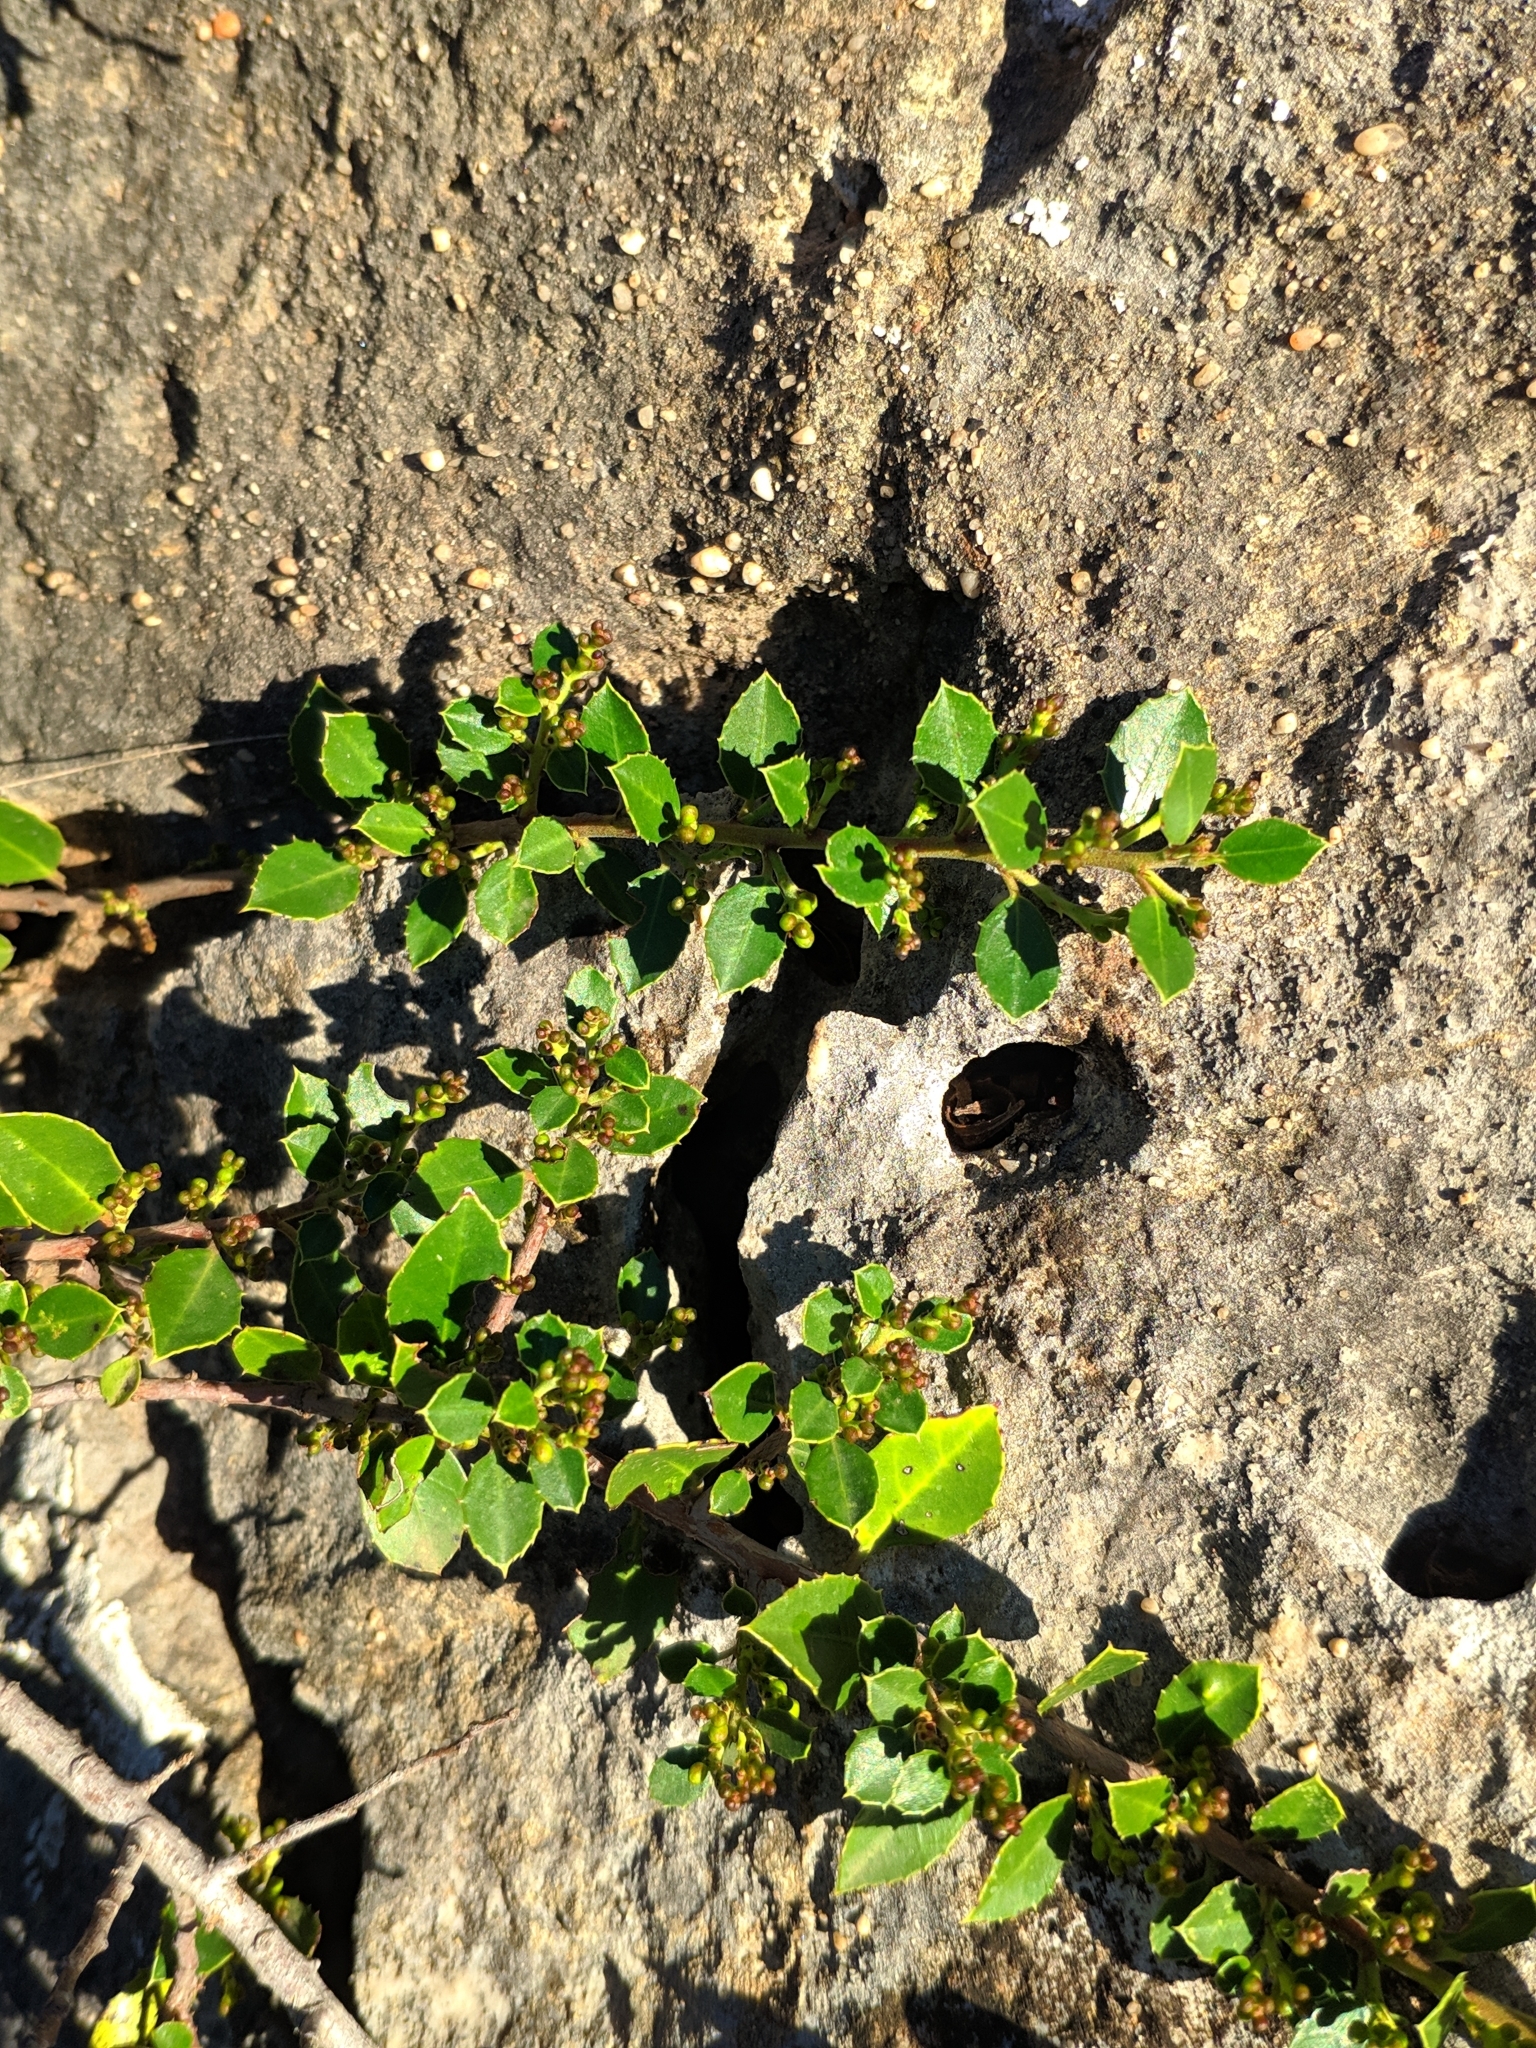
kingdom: Plantae
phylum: Tracheophyta
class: Magnoliopsida
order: Rosales
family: Rhamnaceae
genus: Rhamnus
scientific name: Rhamnus alaternus
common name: Mediterranean buckthorn
